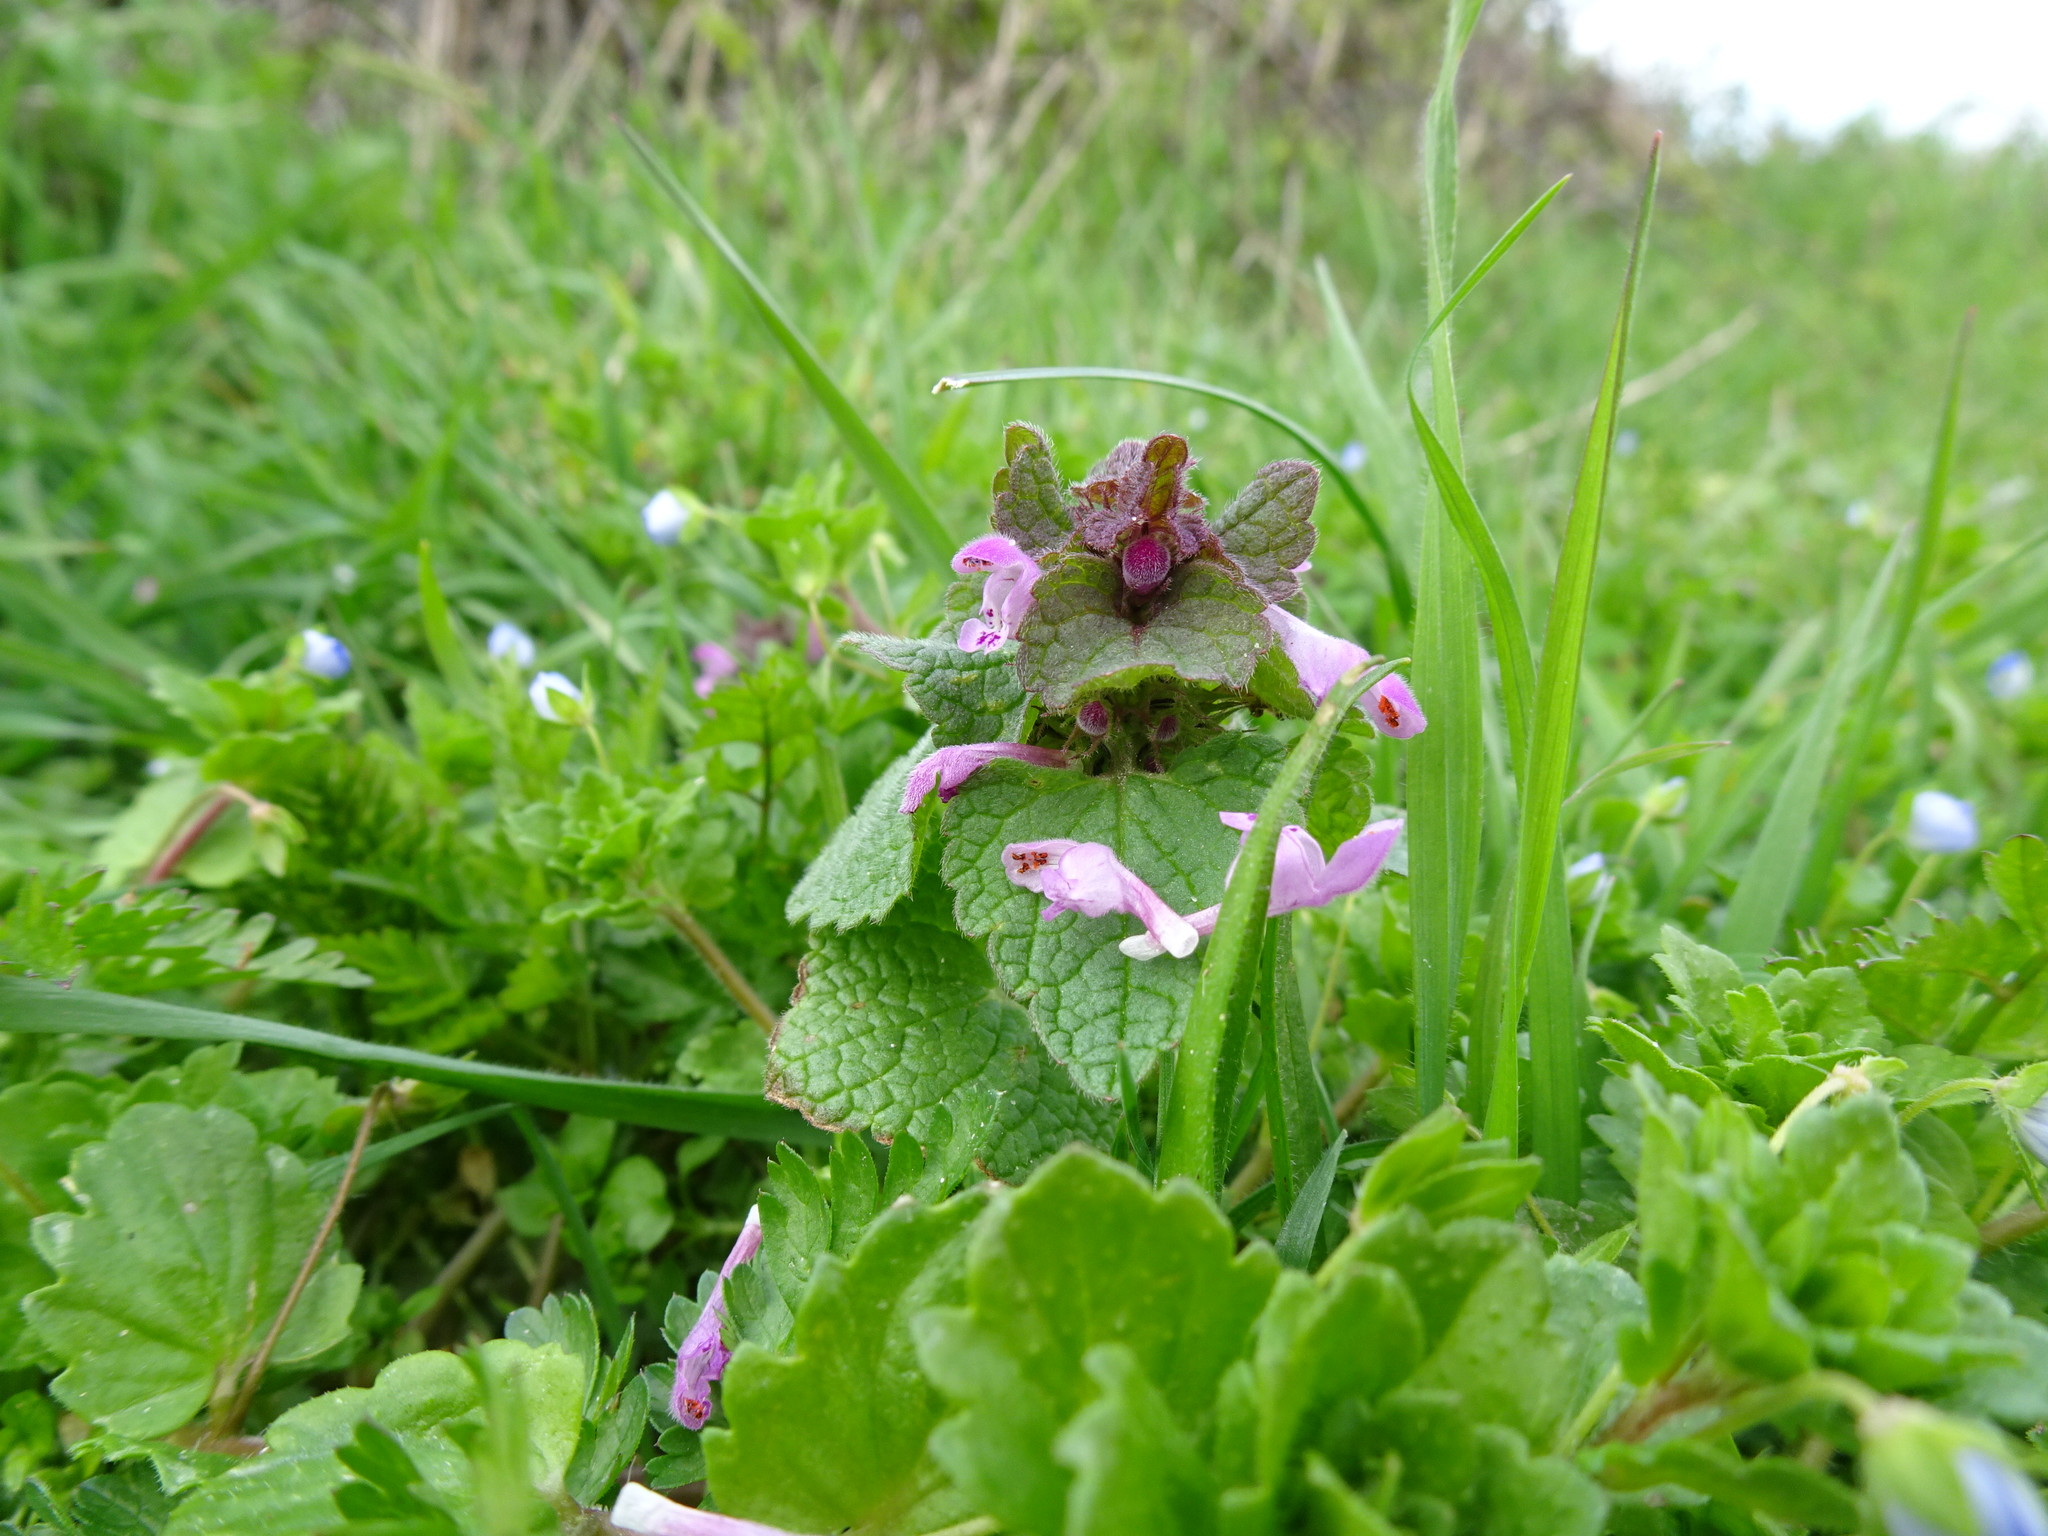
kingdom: Plantae
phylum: Tracheophyta
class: Magnoliopsida
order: Lamiales
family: Lamiaceae
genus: Lamium
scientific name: Lamium purpureum
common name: Red dead-nettle
